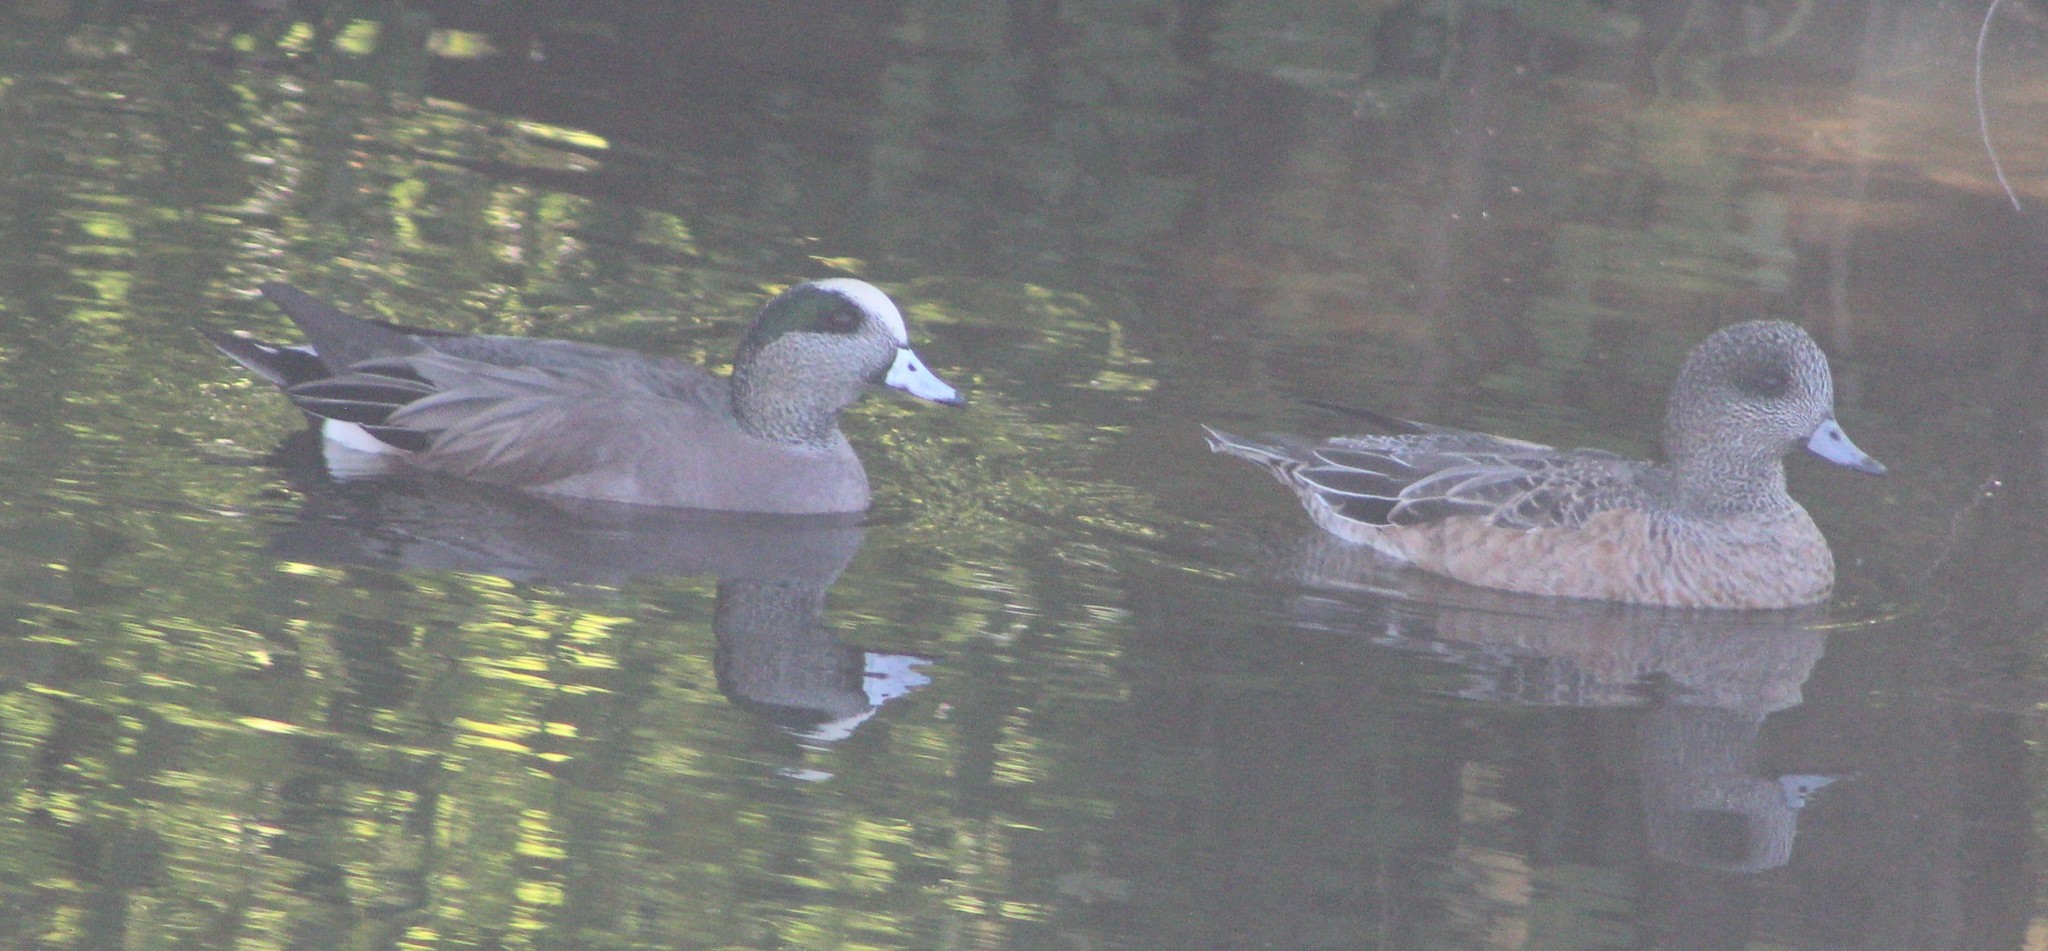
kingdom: Animalia
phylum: Chordata
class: Aves
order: Anseriformes
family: Anatidae
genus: Mareca
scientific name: Mareca americana
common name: American wigeon
